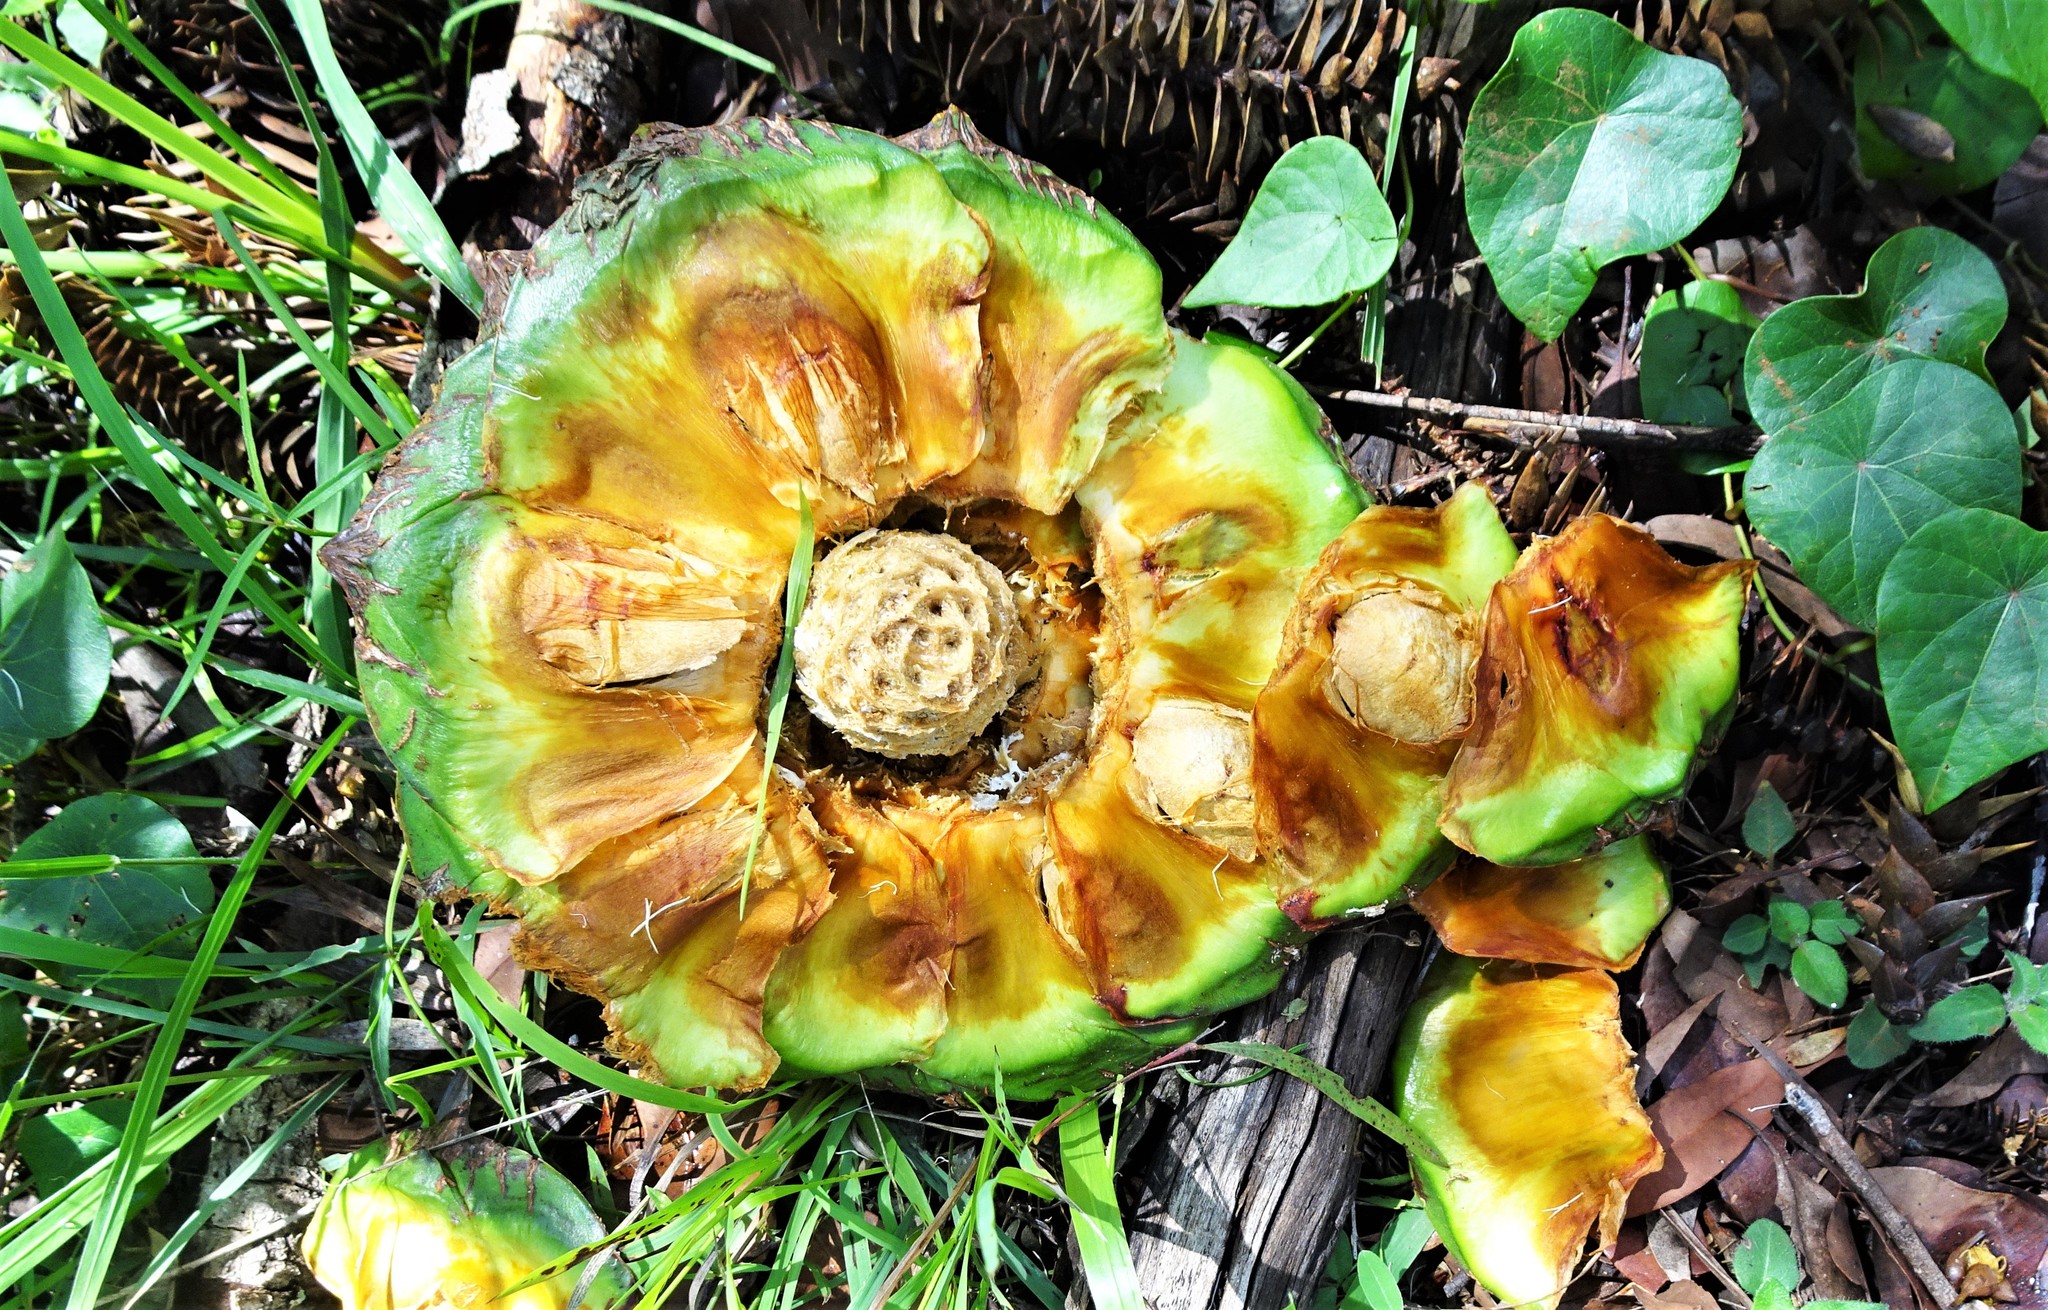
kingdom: Plantae
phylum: Tracheophyta
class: Pinopsida
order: Pinales
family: Araucariaceae
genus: Araucaria
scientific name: Araucaria bidwillii
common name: Moreton-bay-pine
